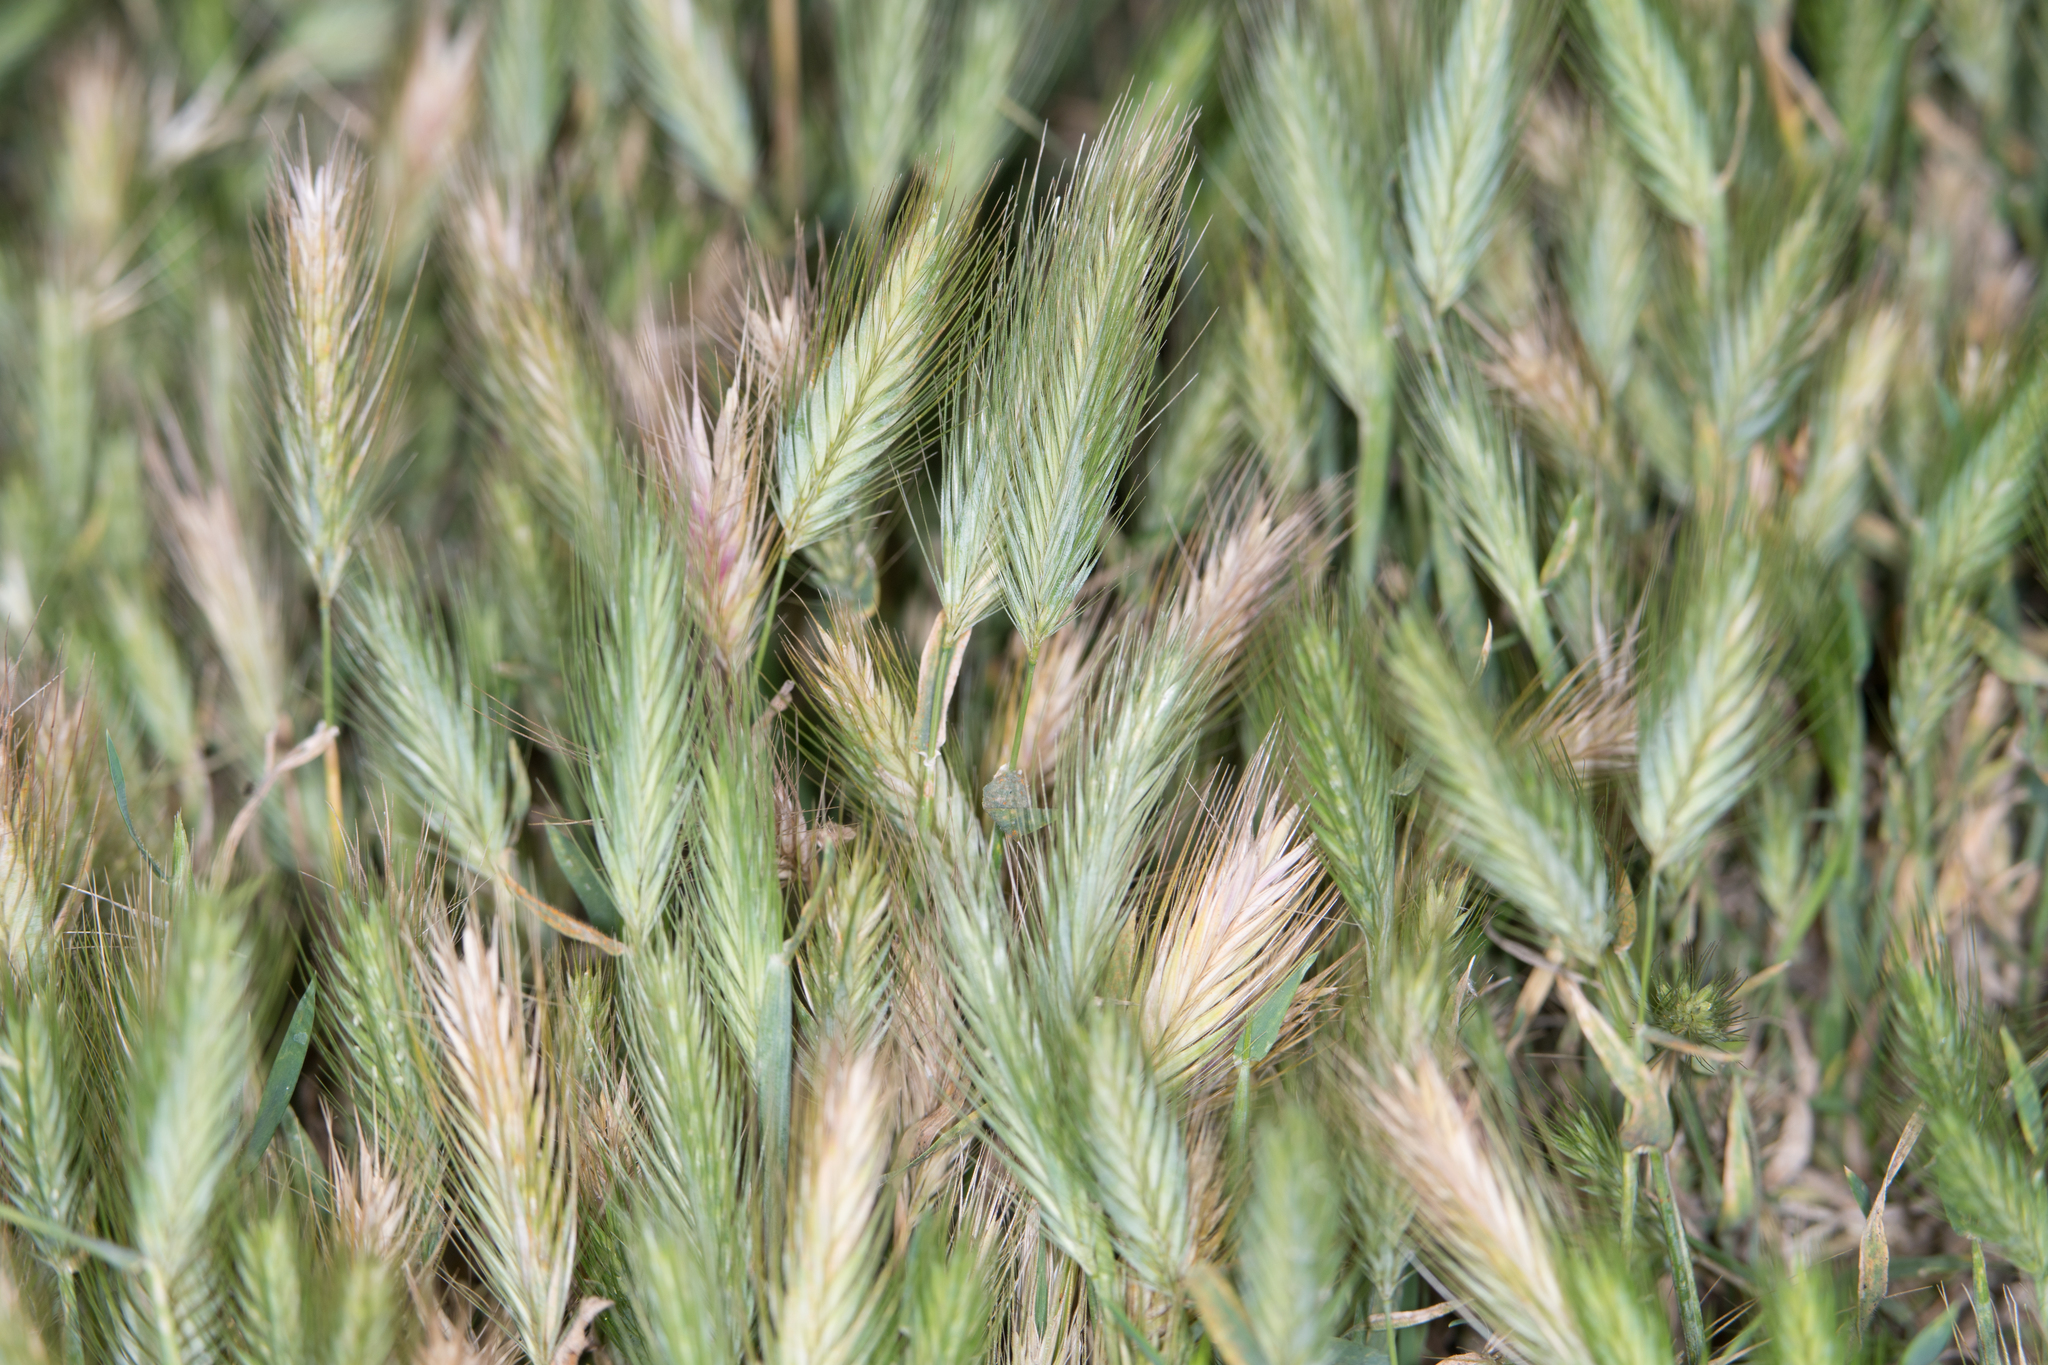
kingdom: Plantae
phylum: Tracheophyta
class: Liliopsida
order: Poales
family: Poaceae
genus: Hordeum
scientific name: Hordeum murinum
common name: Wall barley
